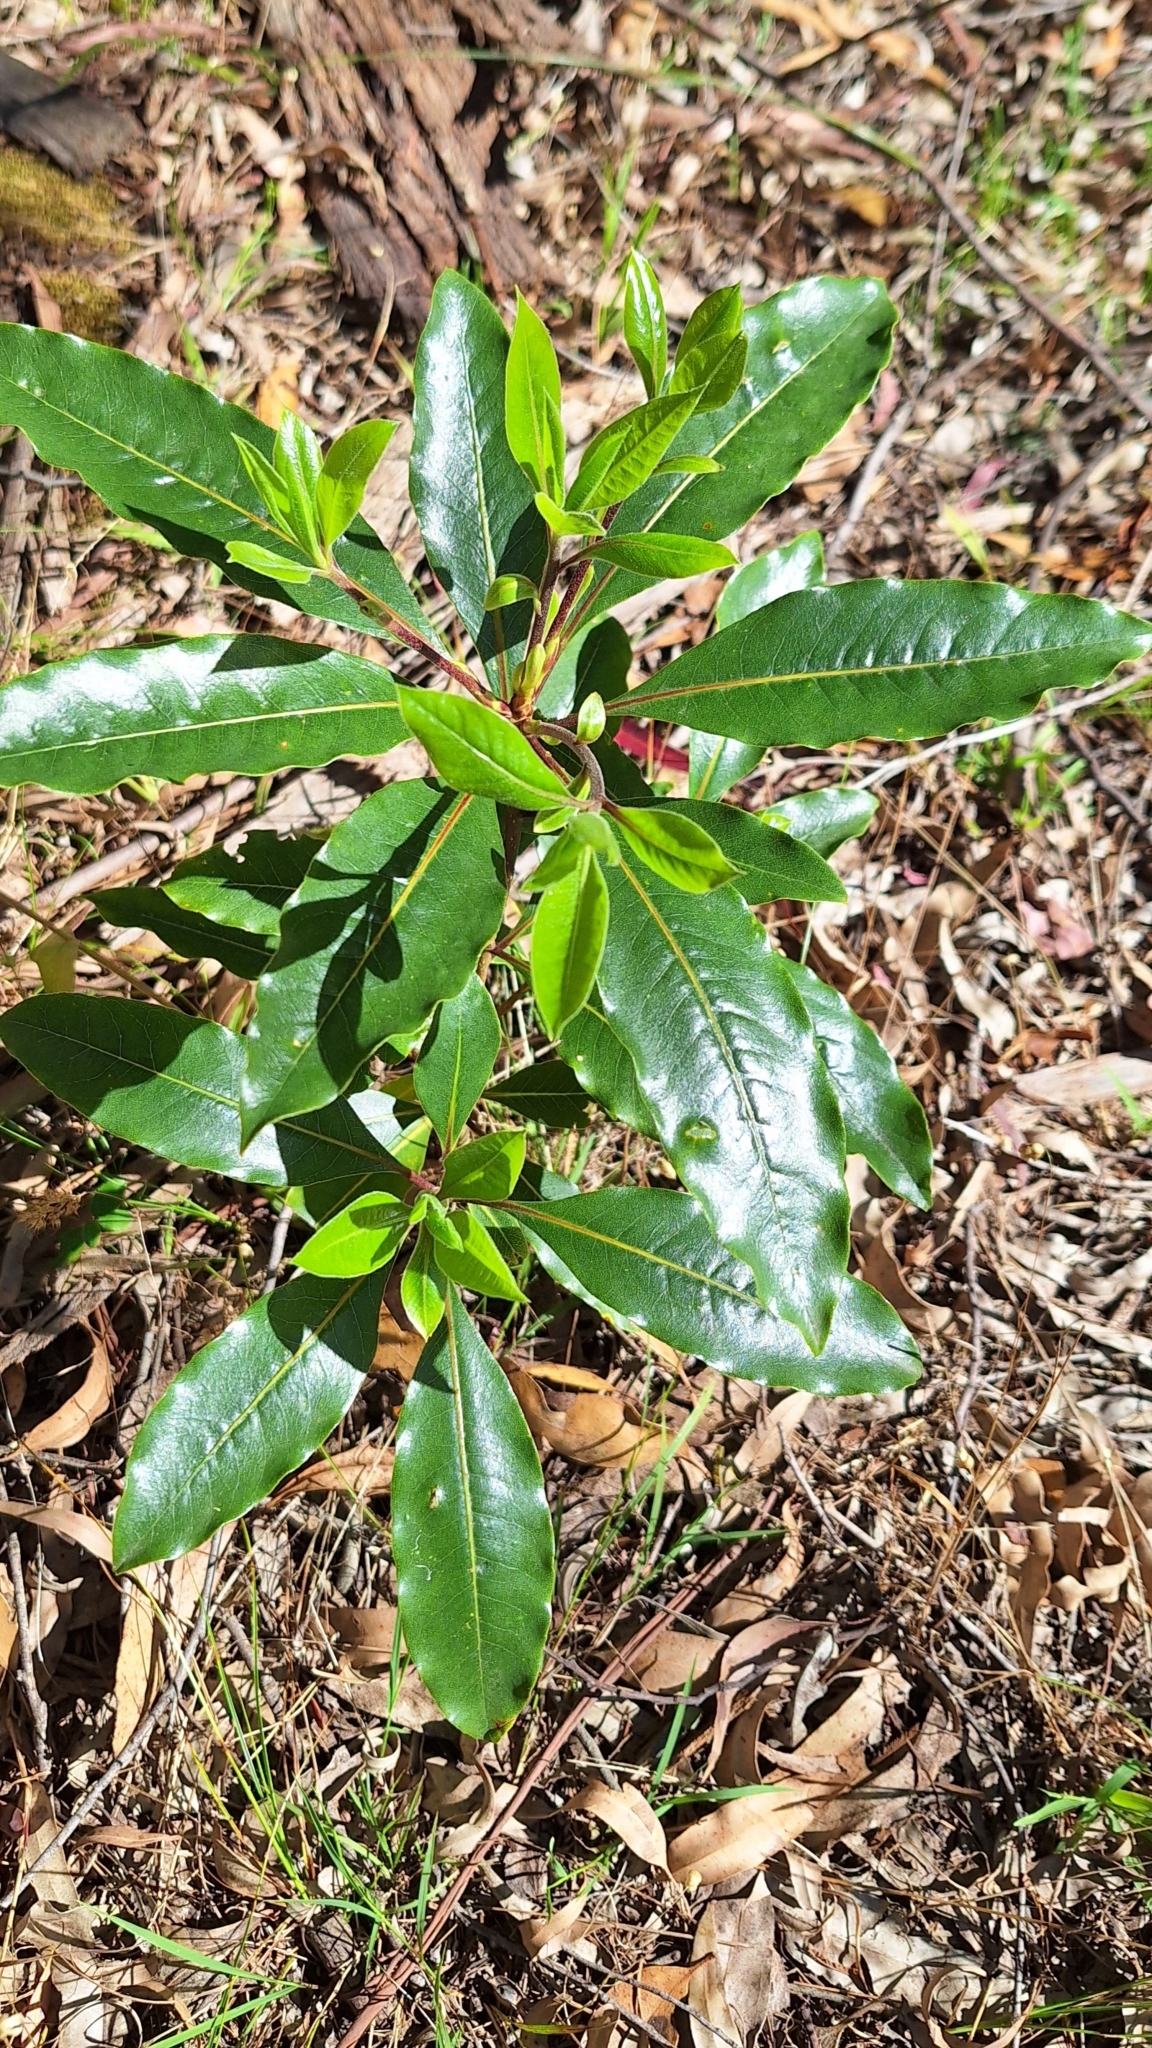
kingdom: Plantae
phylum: Tracheophyta
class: Magnoliopsida
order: Apiales
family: Pittosporaceae
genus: Pittosporum
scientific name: Pittosporum undulatum
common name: Australian cheesewood
